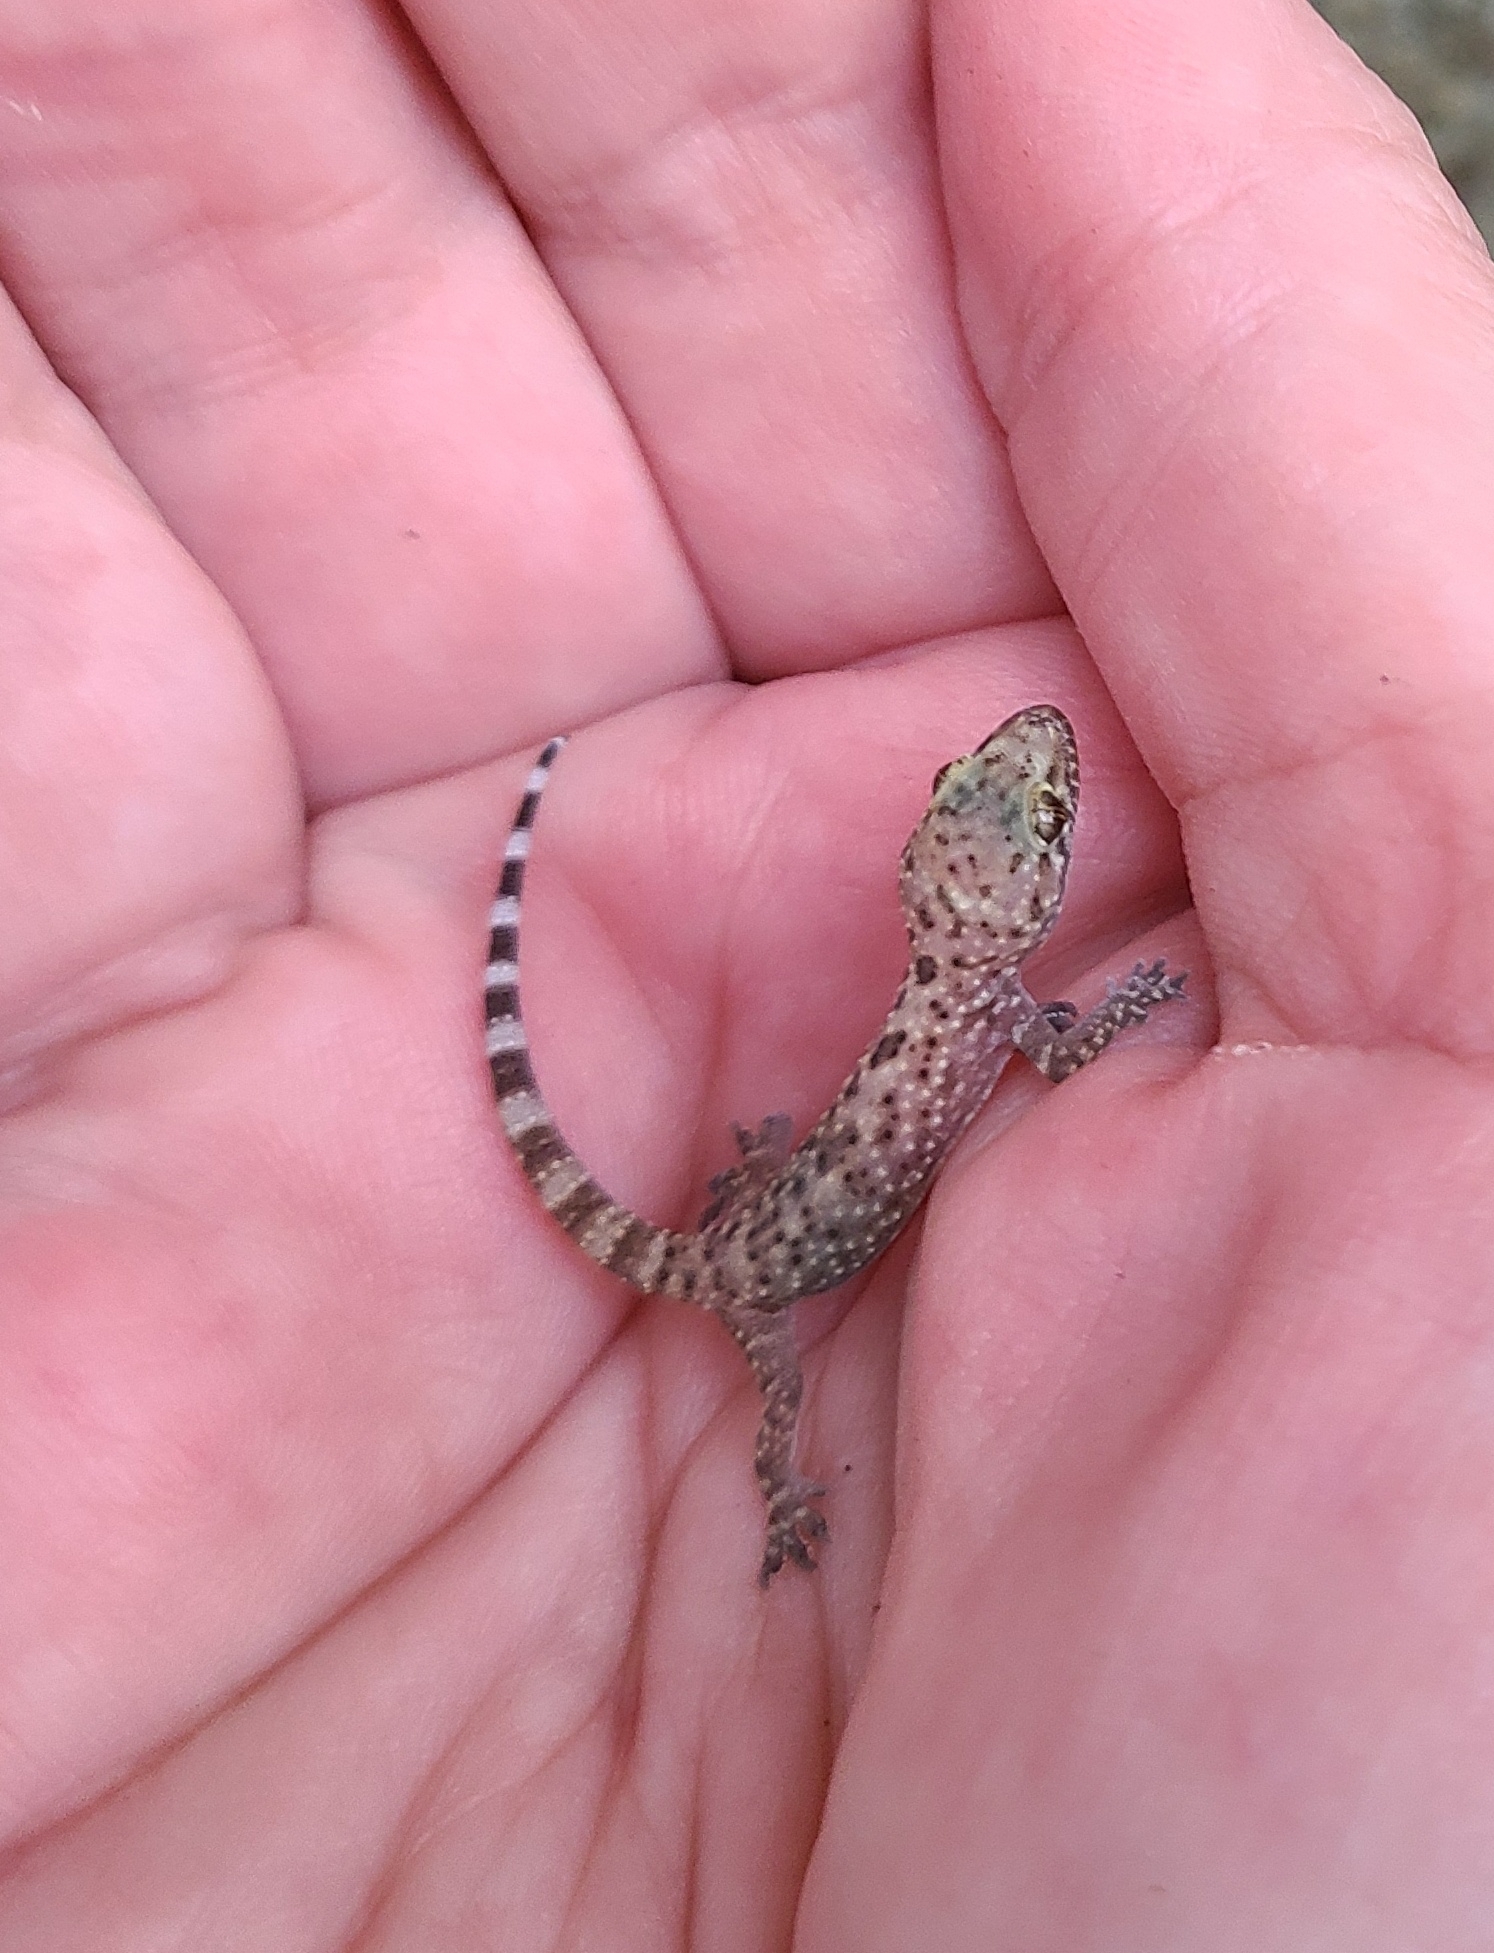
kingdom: Animalia
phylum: Chordata
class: Squamata
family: Gekkonidae
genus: Hemidactylus
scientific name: Hemidactylus turcicus
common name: Turkish gecko
